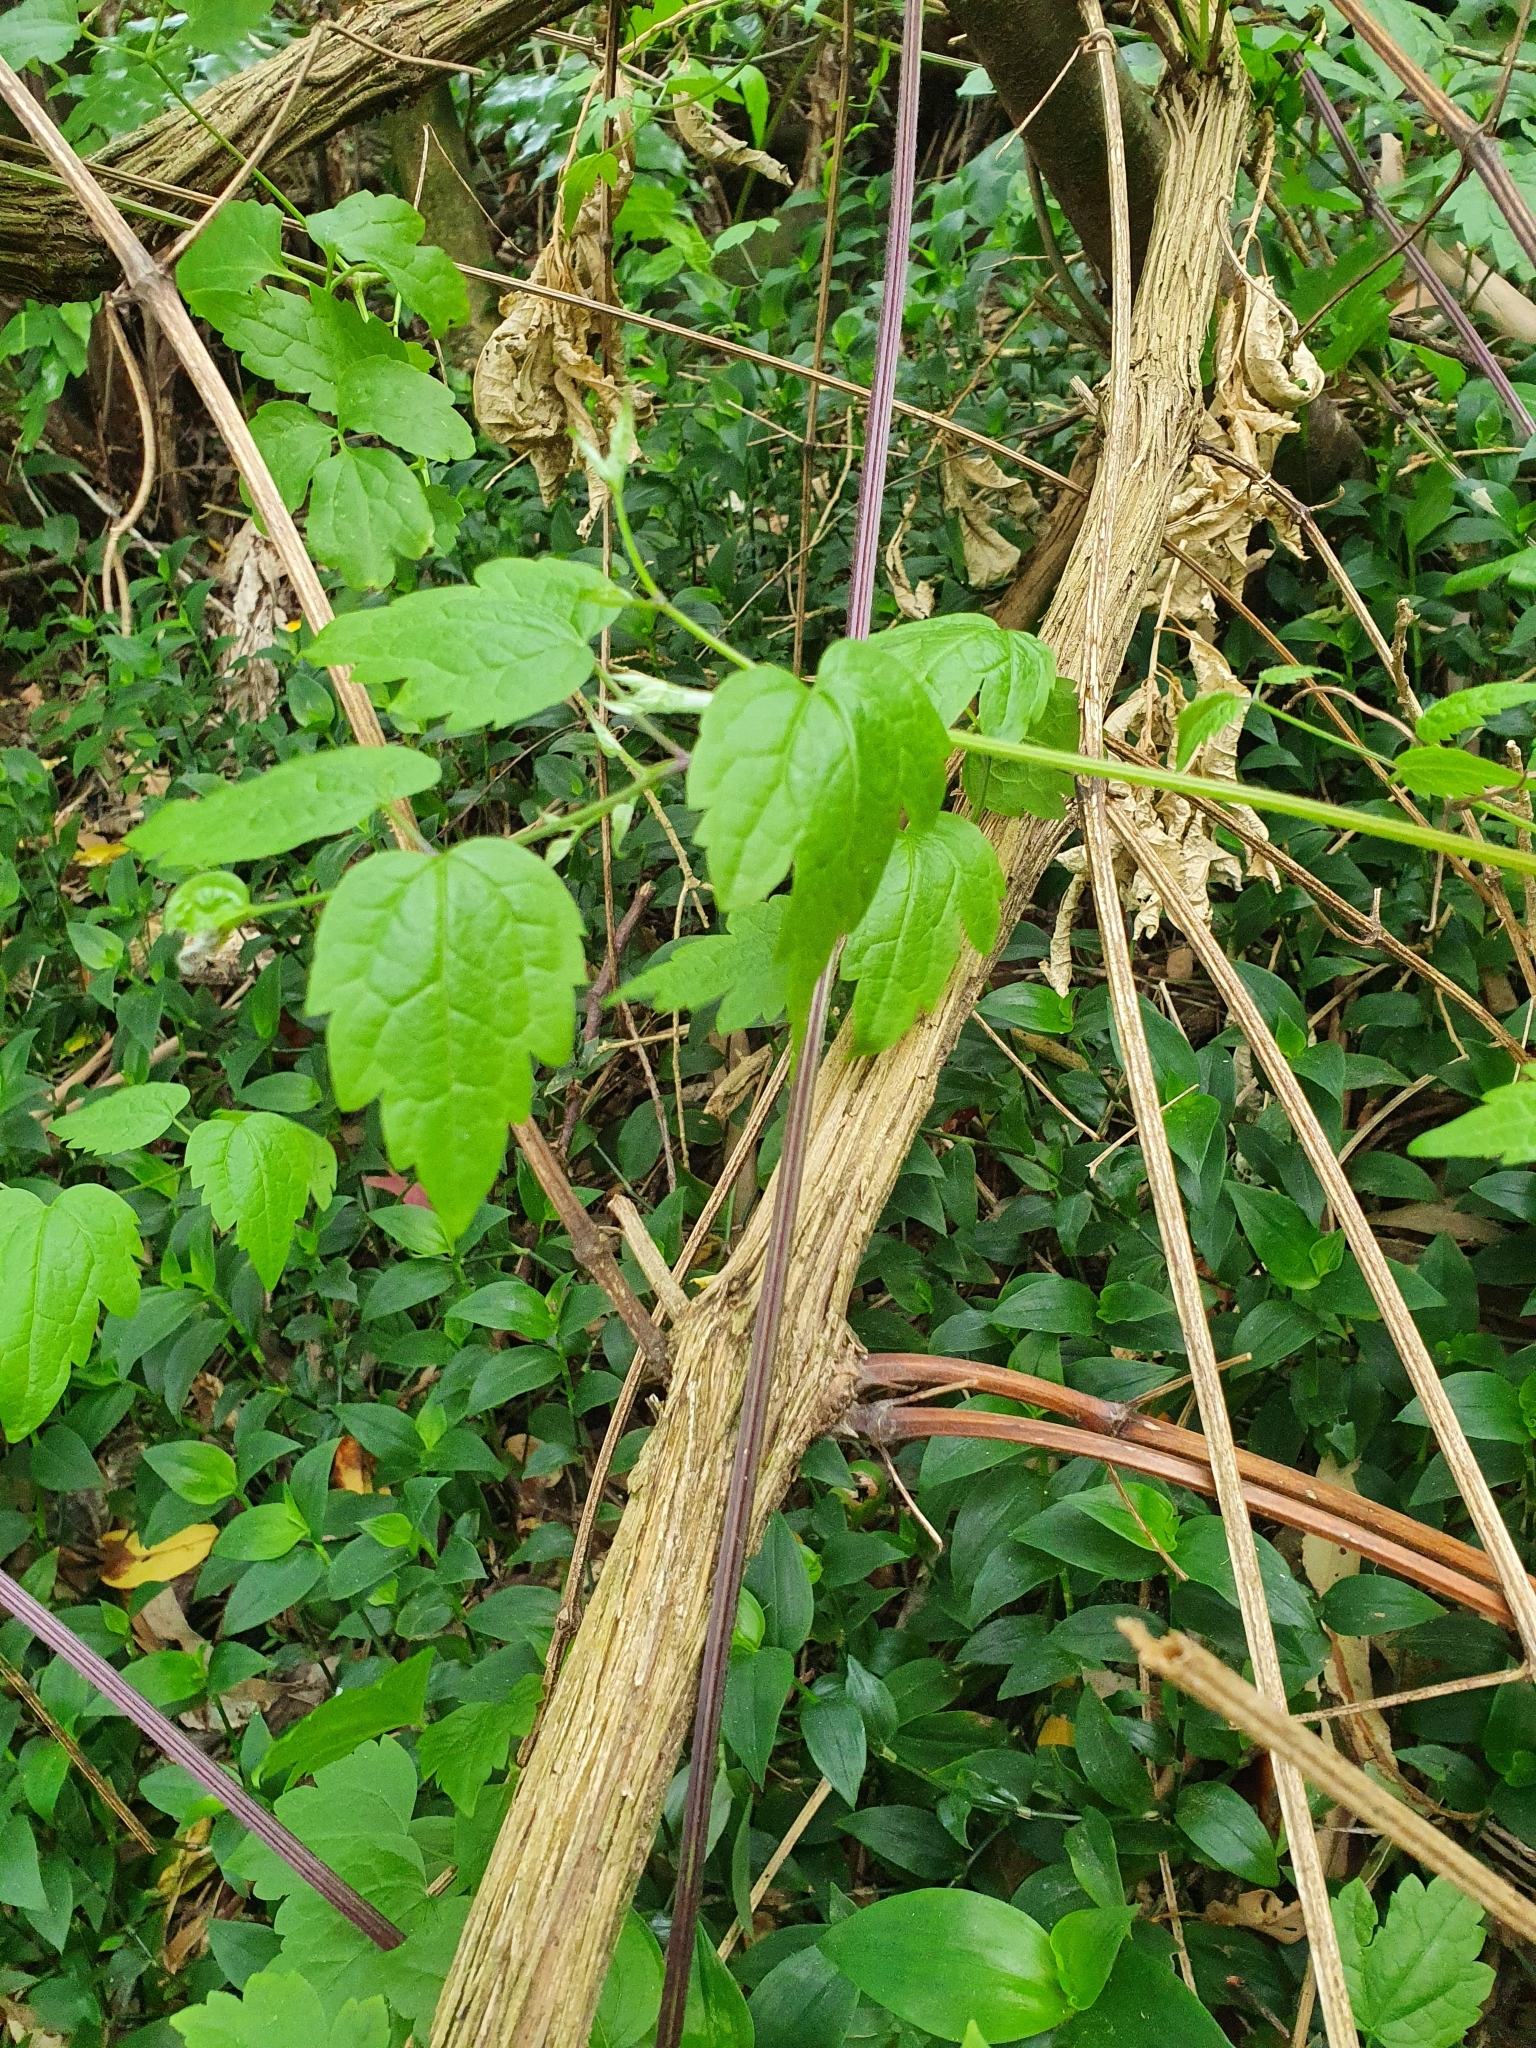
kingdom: Plantae
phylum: Tracheophyta
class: Magnoliopsida
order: Ranunculales
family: Ranunculaceae
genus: Clematis
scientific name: Clematis vitalba
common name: Evergreen clematis
